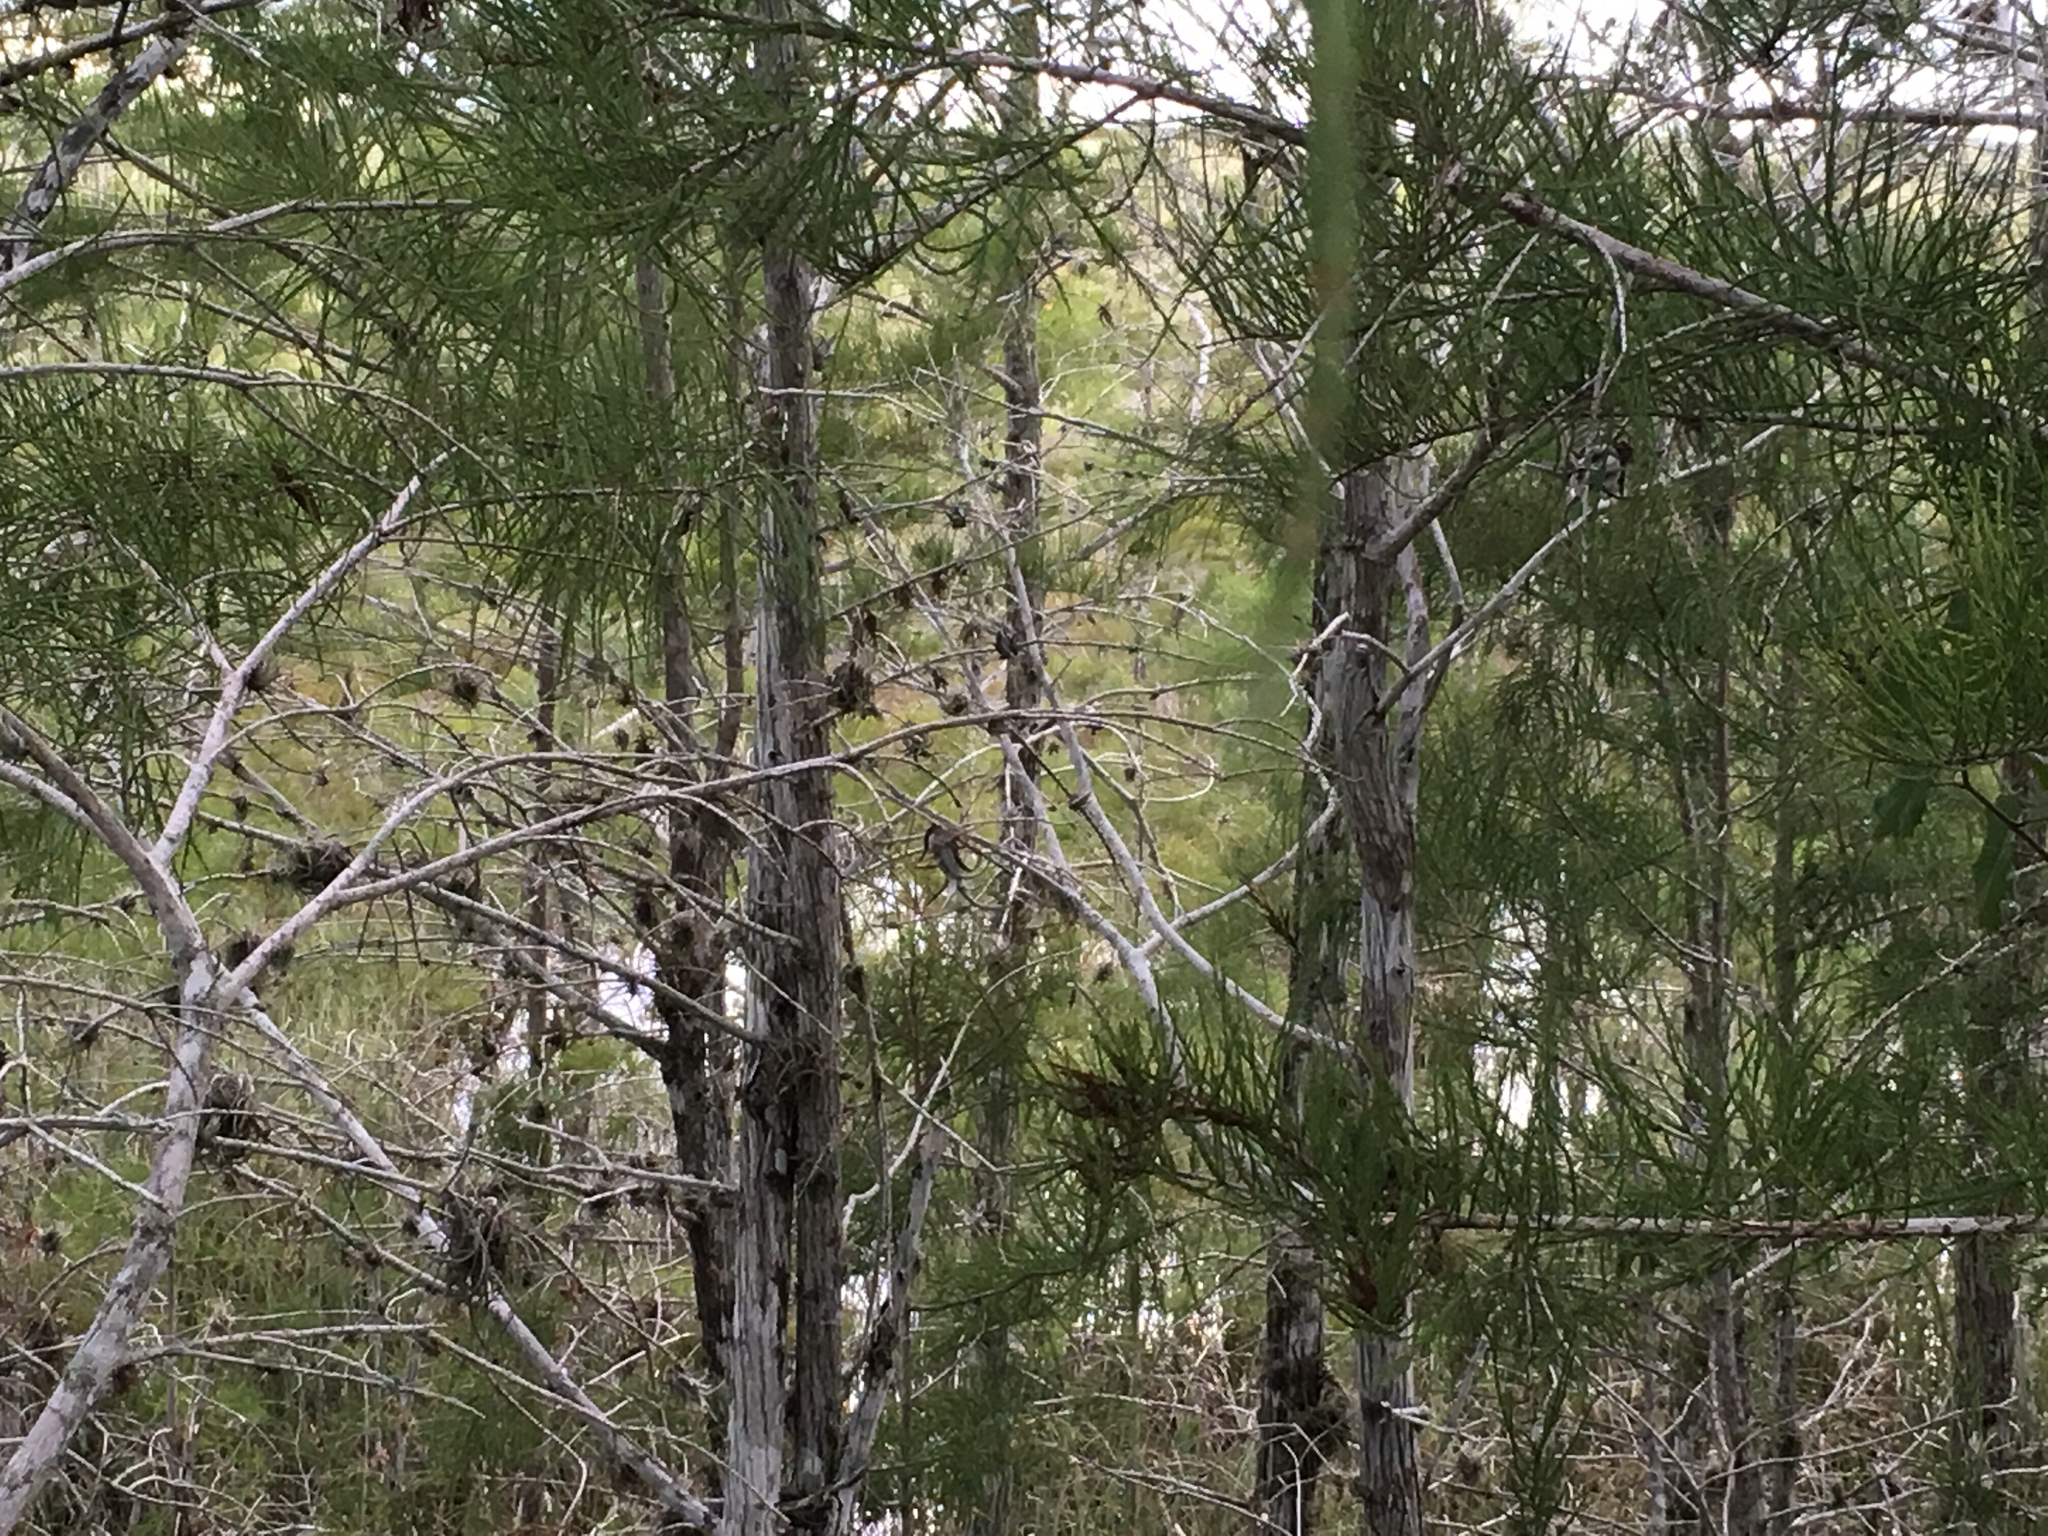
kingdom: Plantae
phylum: Tracheophyta
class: Liliopsida
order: Poales
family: Bromeliaceae
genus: Tillandsia
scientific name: Tillandsia recurvata
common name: Small ballmoss
